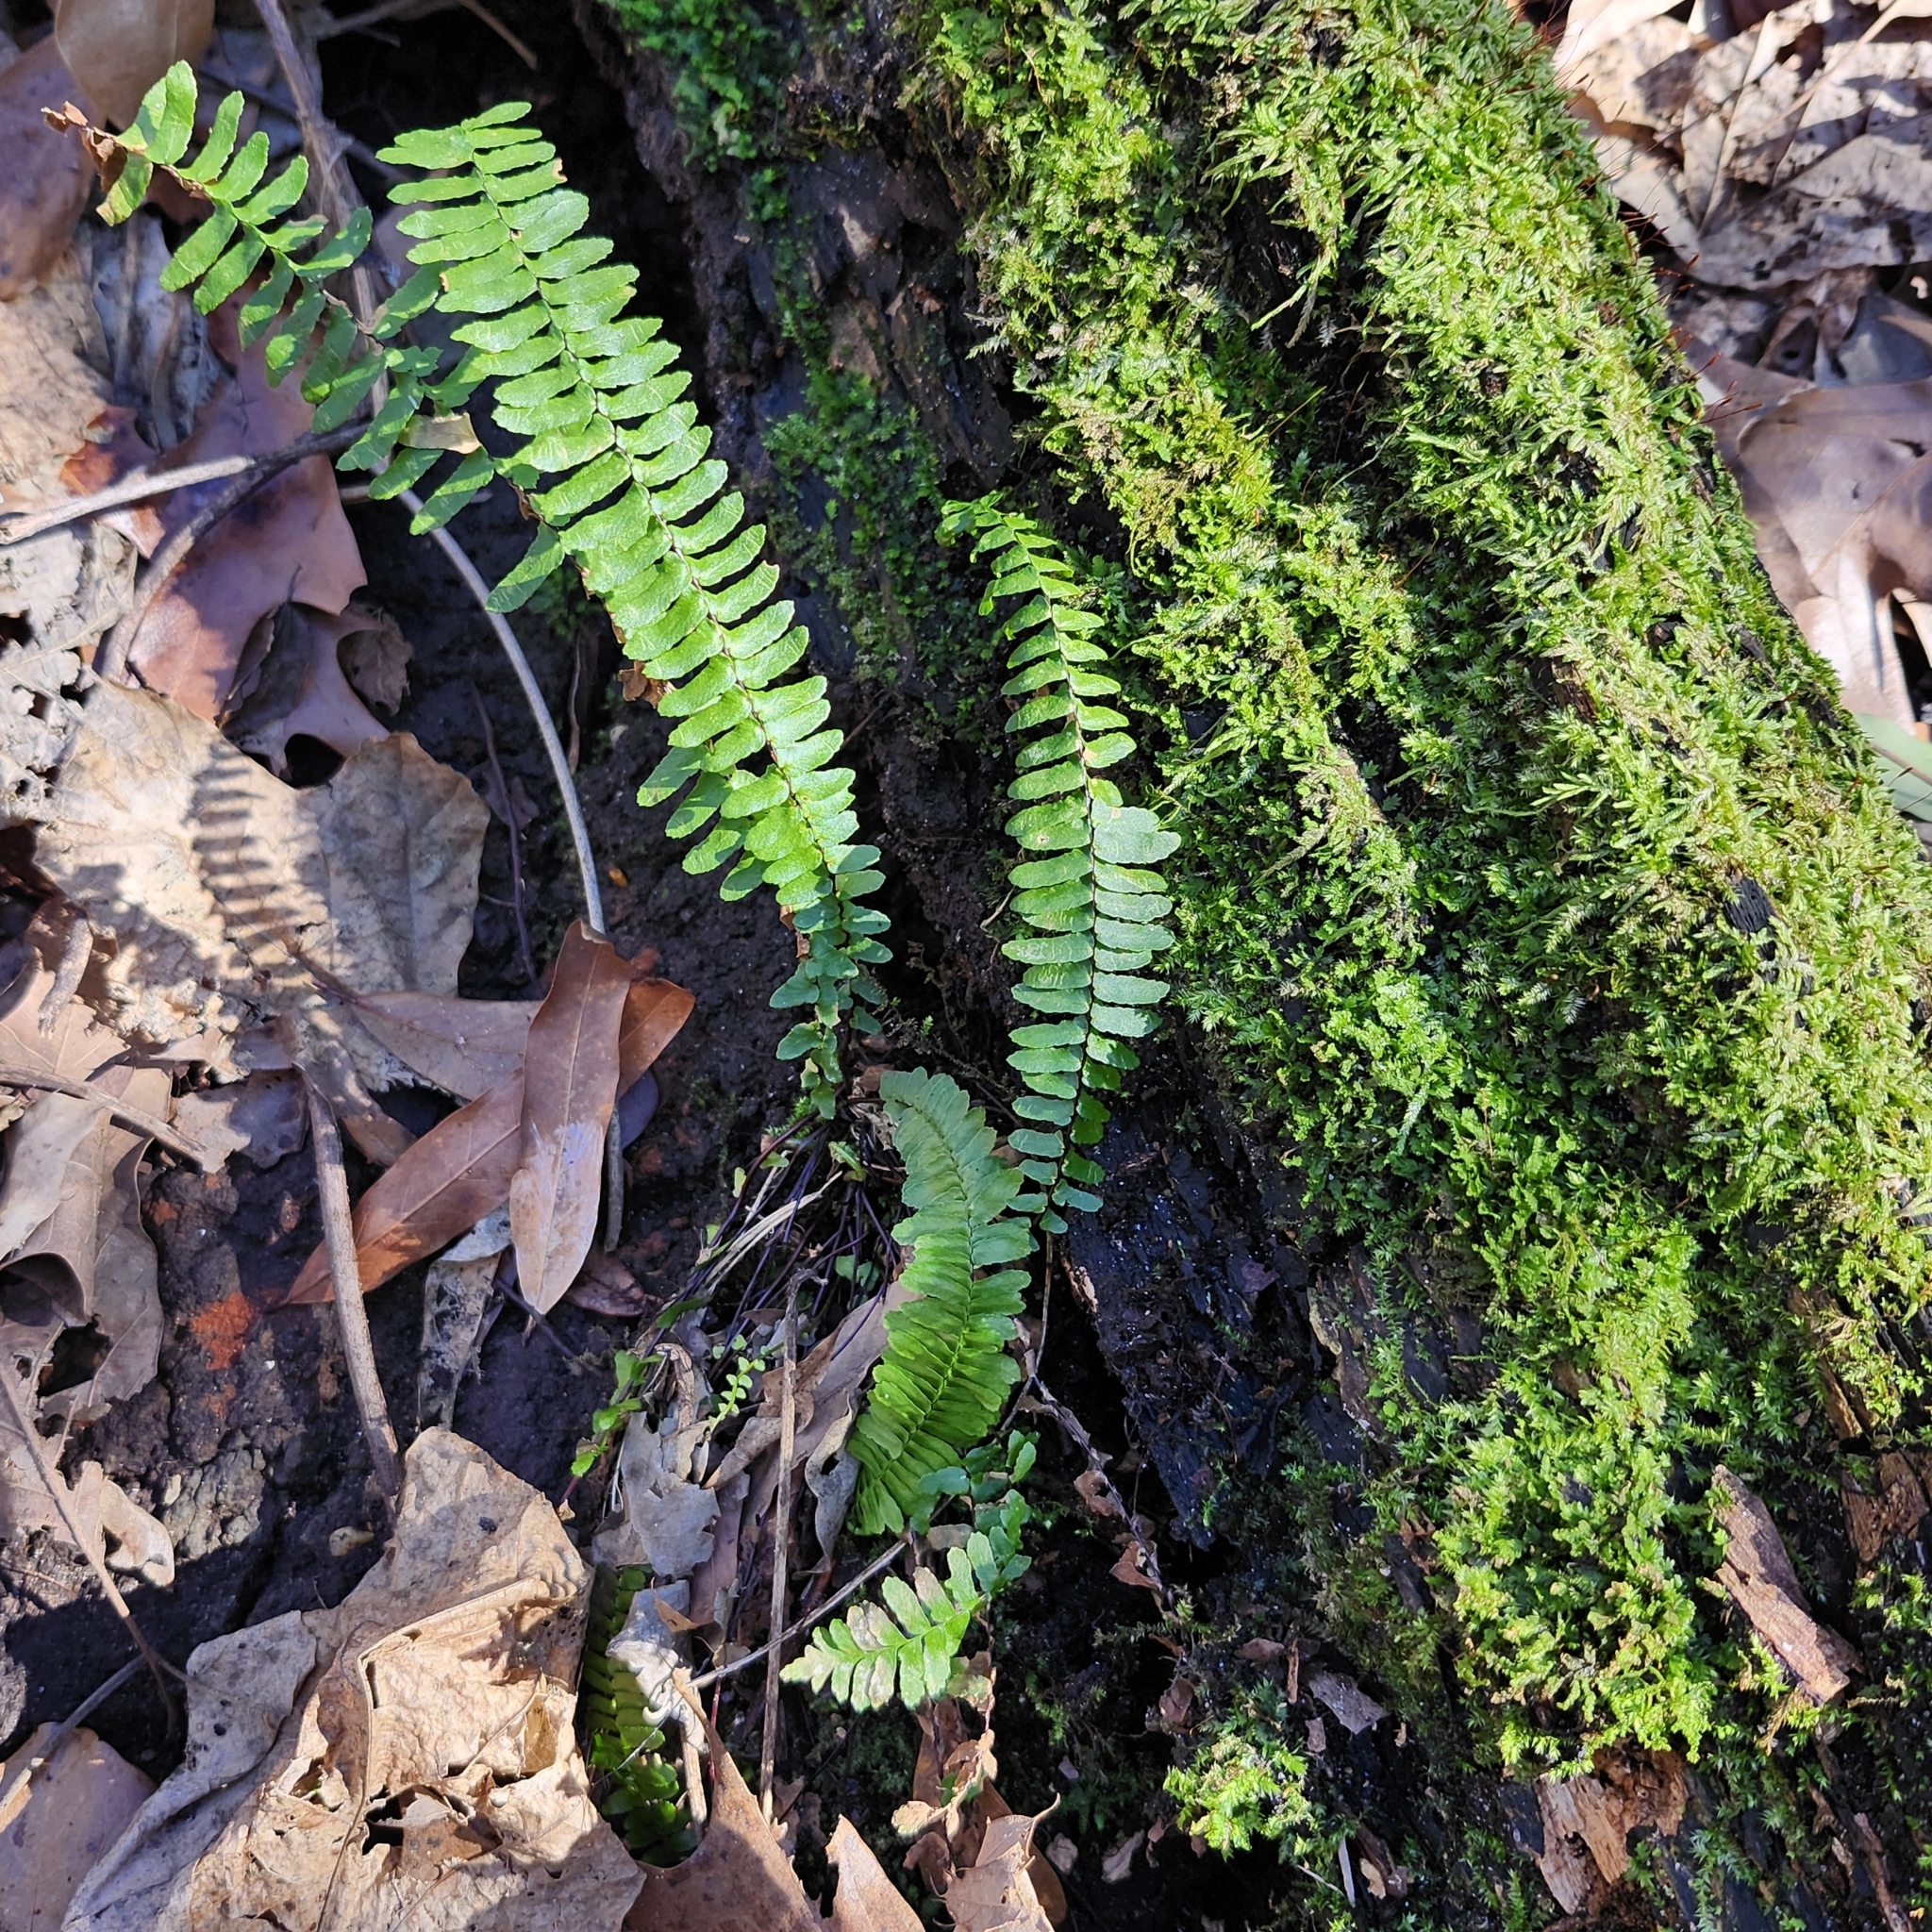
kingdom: Plantae
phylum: Tracheophyta
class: Polypodiopsida
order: Polypodiales
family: Aspleniaceae
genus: Asplenium
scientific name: Asplenium platyneuron
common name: Ebony spleenwort
